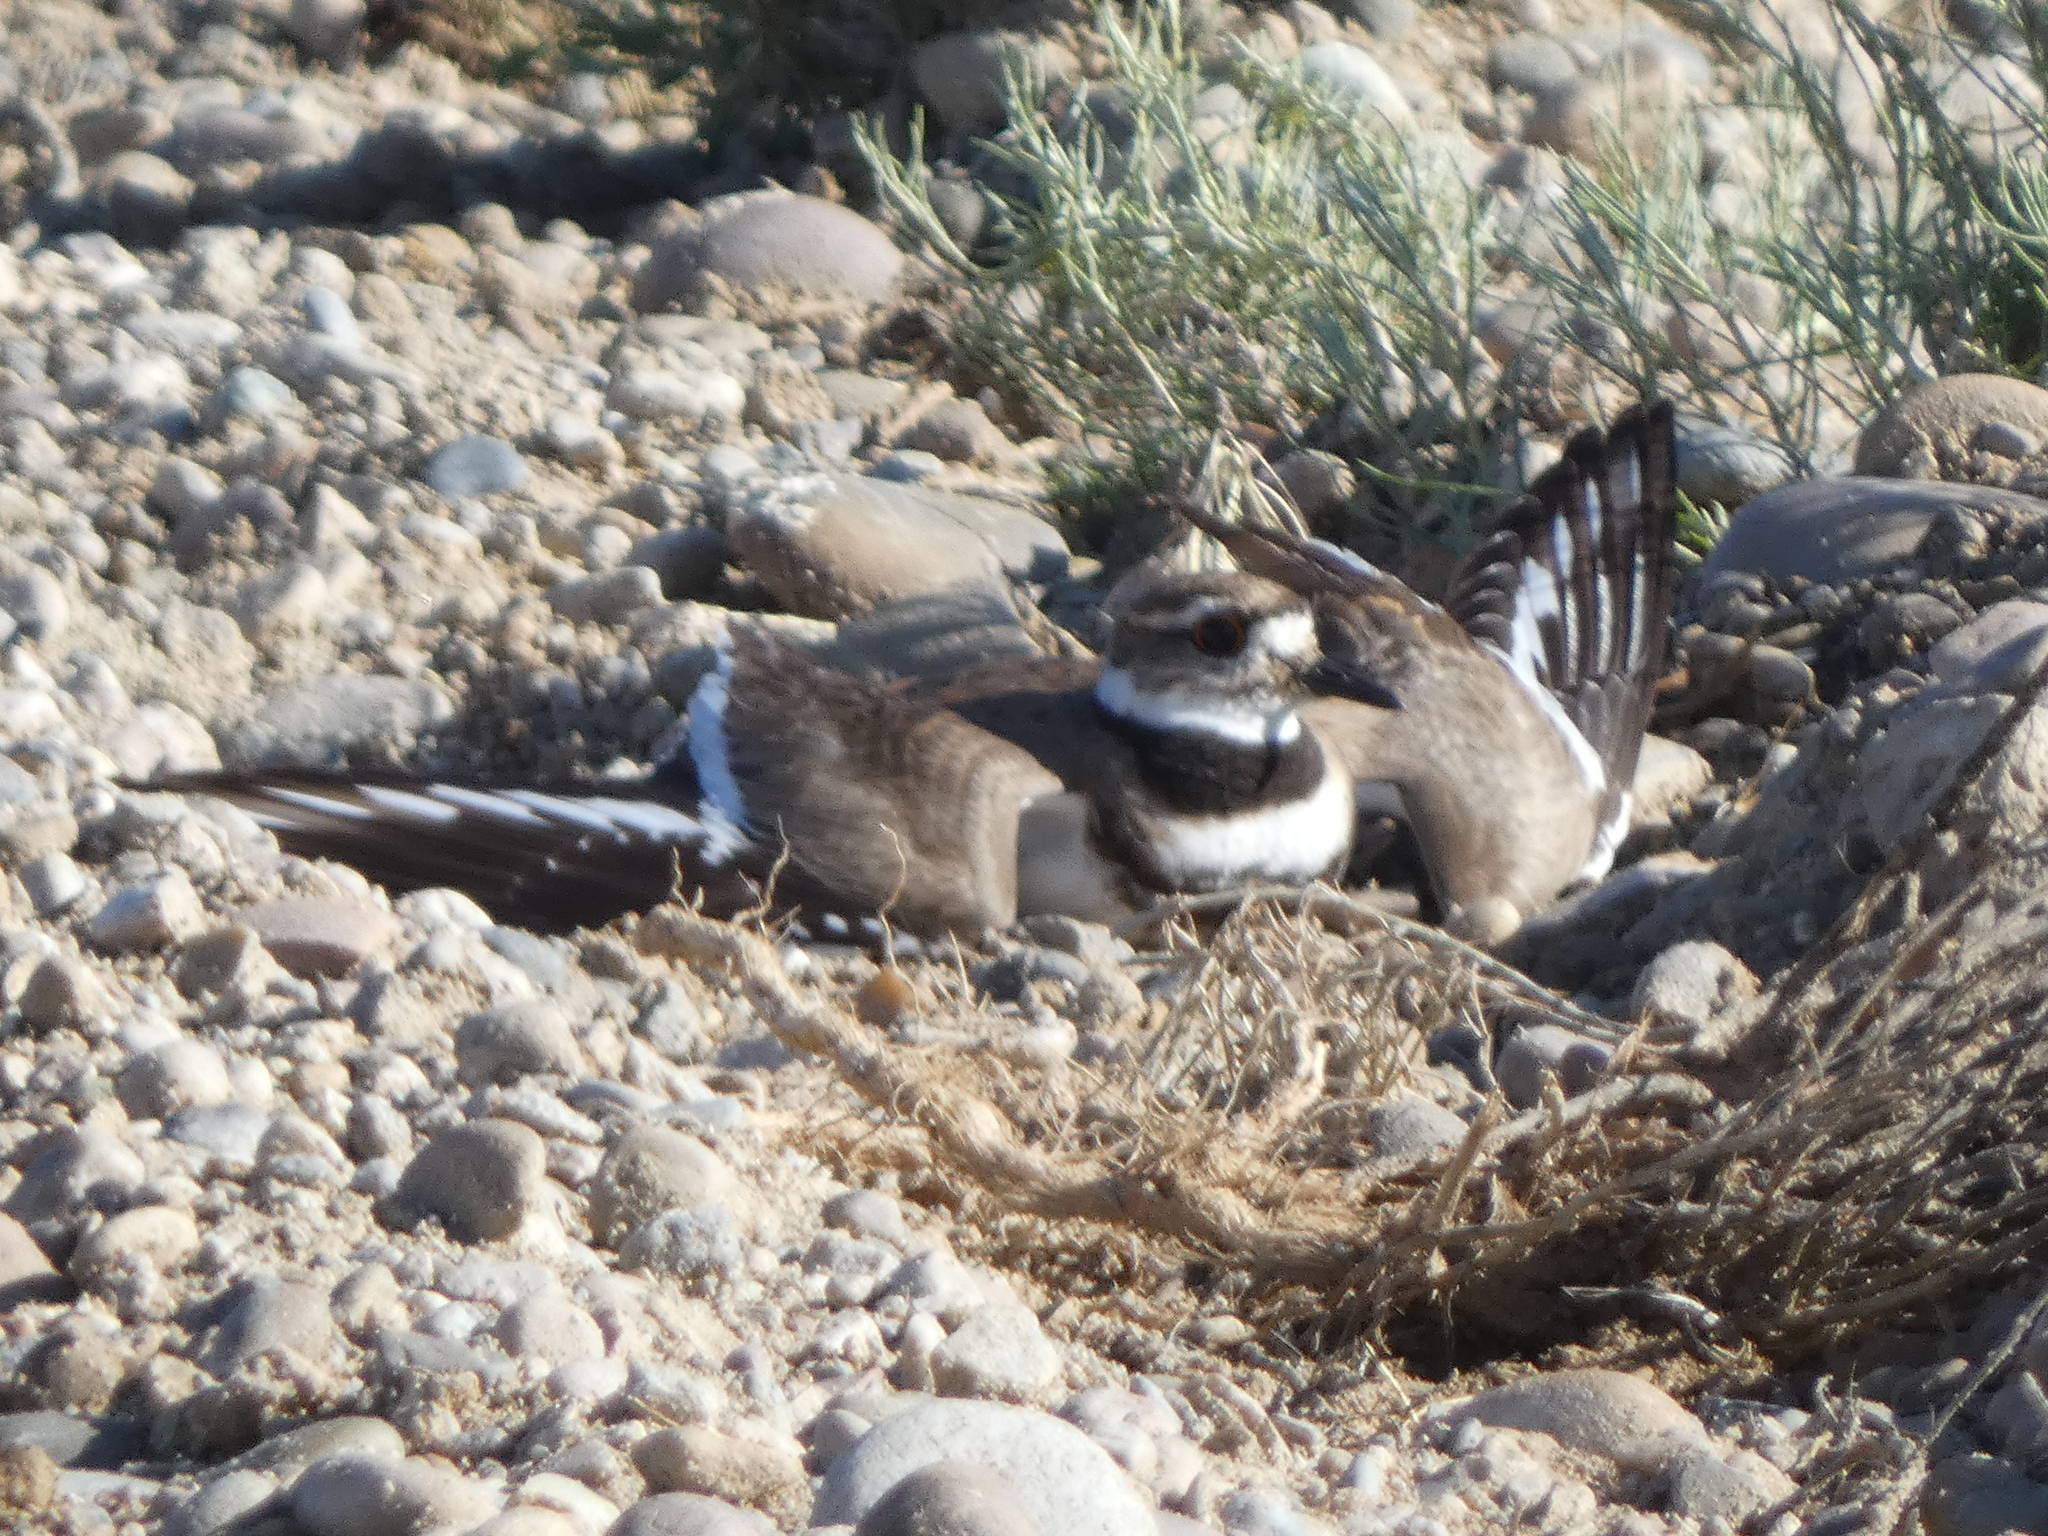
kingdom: Animalia
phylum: Chordata
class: Aves
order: Charadriiformes
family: Charadriidae
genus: Charadrius
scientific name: Charadrius vociferus
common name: Killdeer
